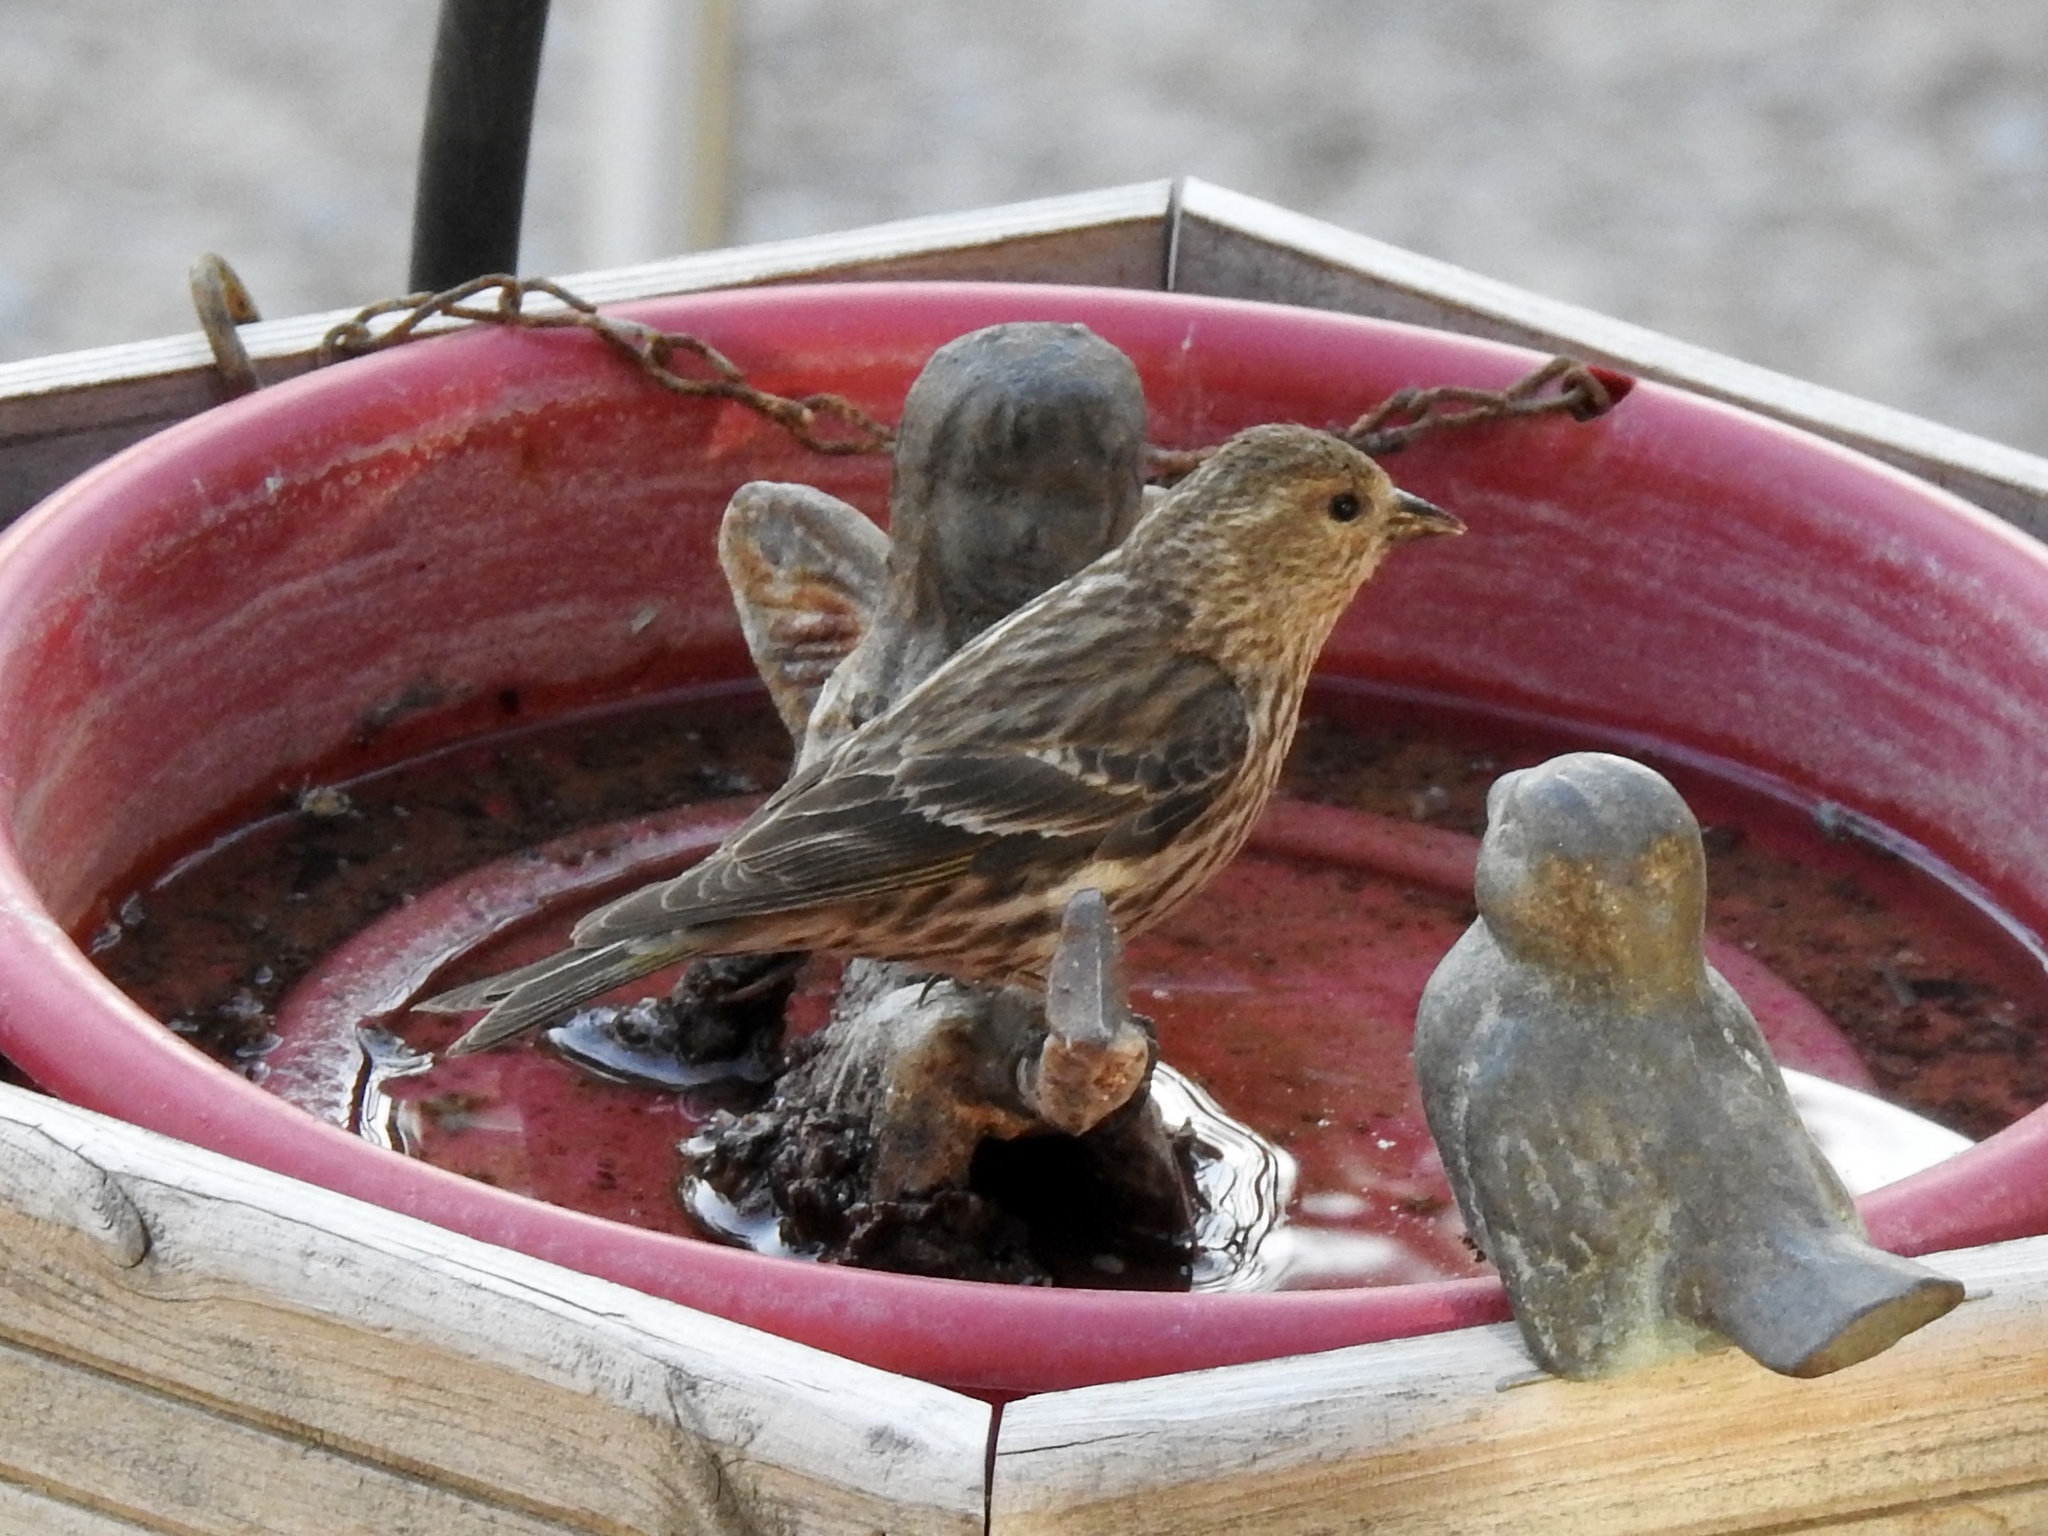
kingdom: Animalia
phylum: Chordata
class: Aves
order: Passeriformes
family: Fringillidae
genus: Spinus
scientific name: Spinus pinus
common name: Pine siskin
